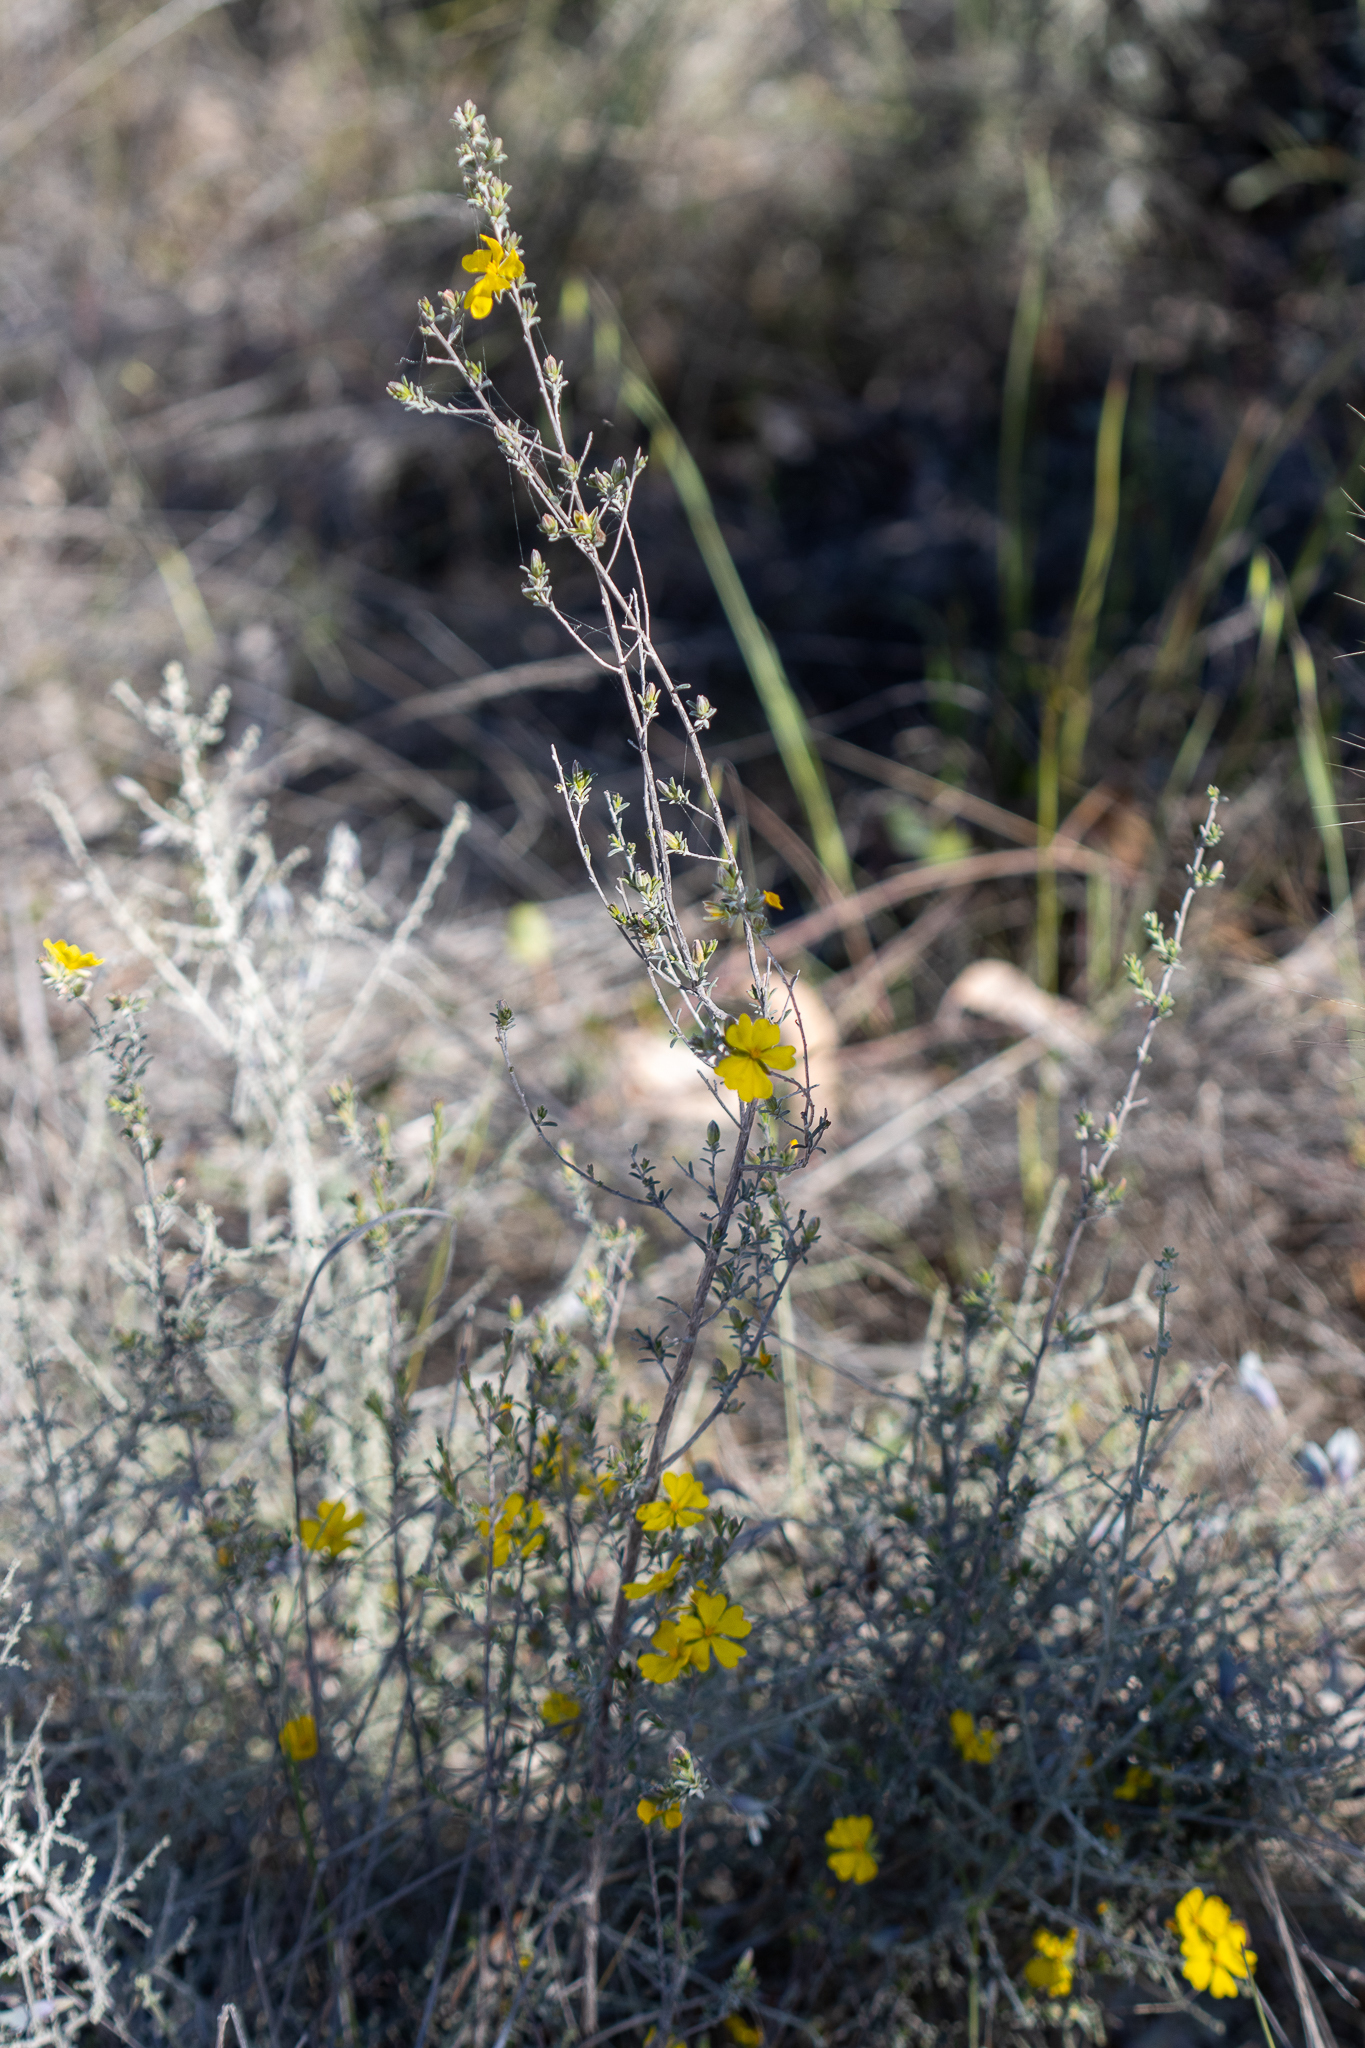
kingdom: Plantae
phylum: Tracheophyta
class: Magnoliopsida
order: Dilleniales
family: Dilleniaceae
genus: Hibbertia
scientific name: Hibbertia devitata
